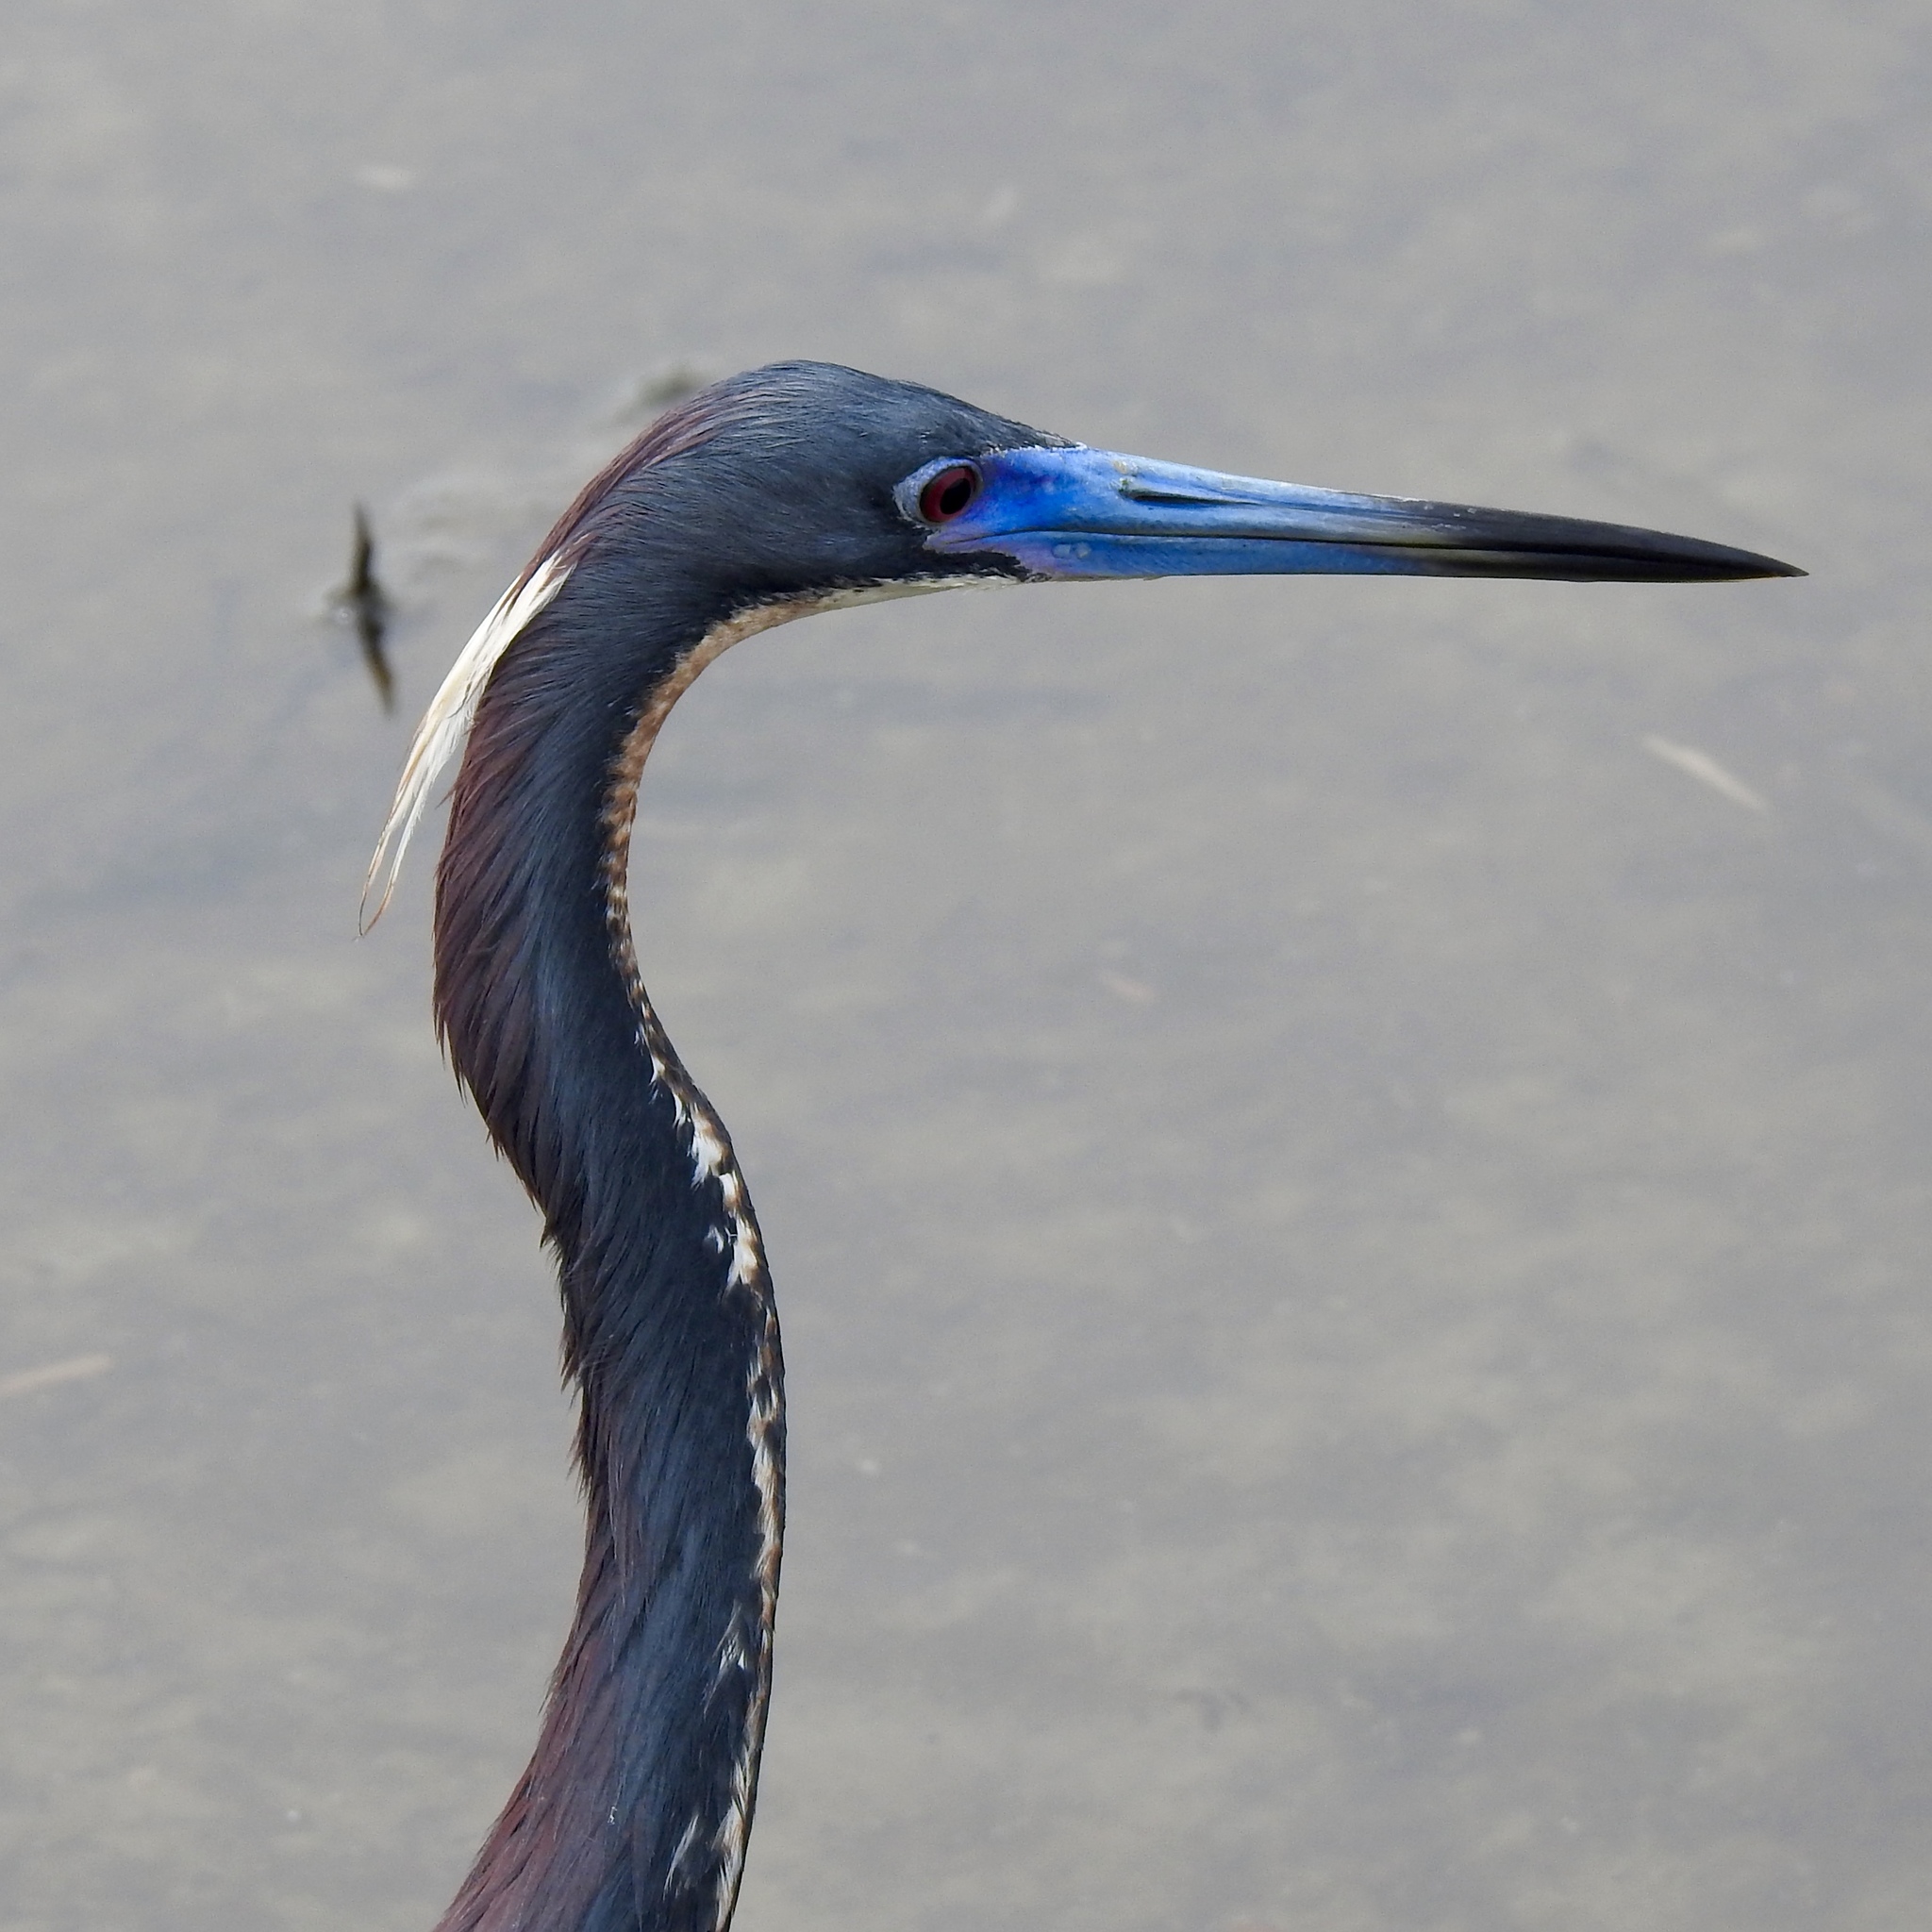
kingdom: Animalia
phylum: Chordata
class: Aves
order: Pelecaniformes
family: Ardeidae
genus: Egretta
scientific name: Egretta tricolor
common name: Tricolored heron
